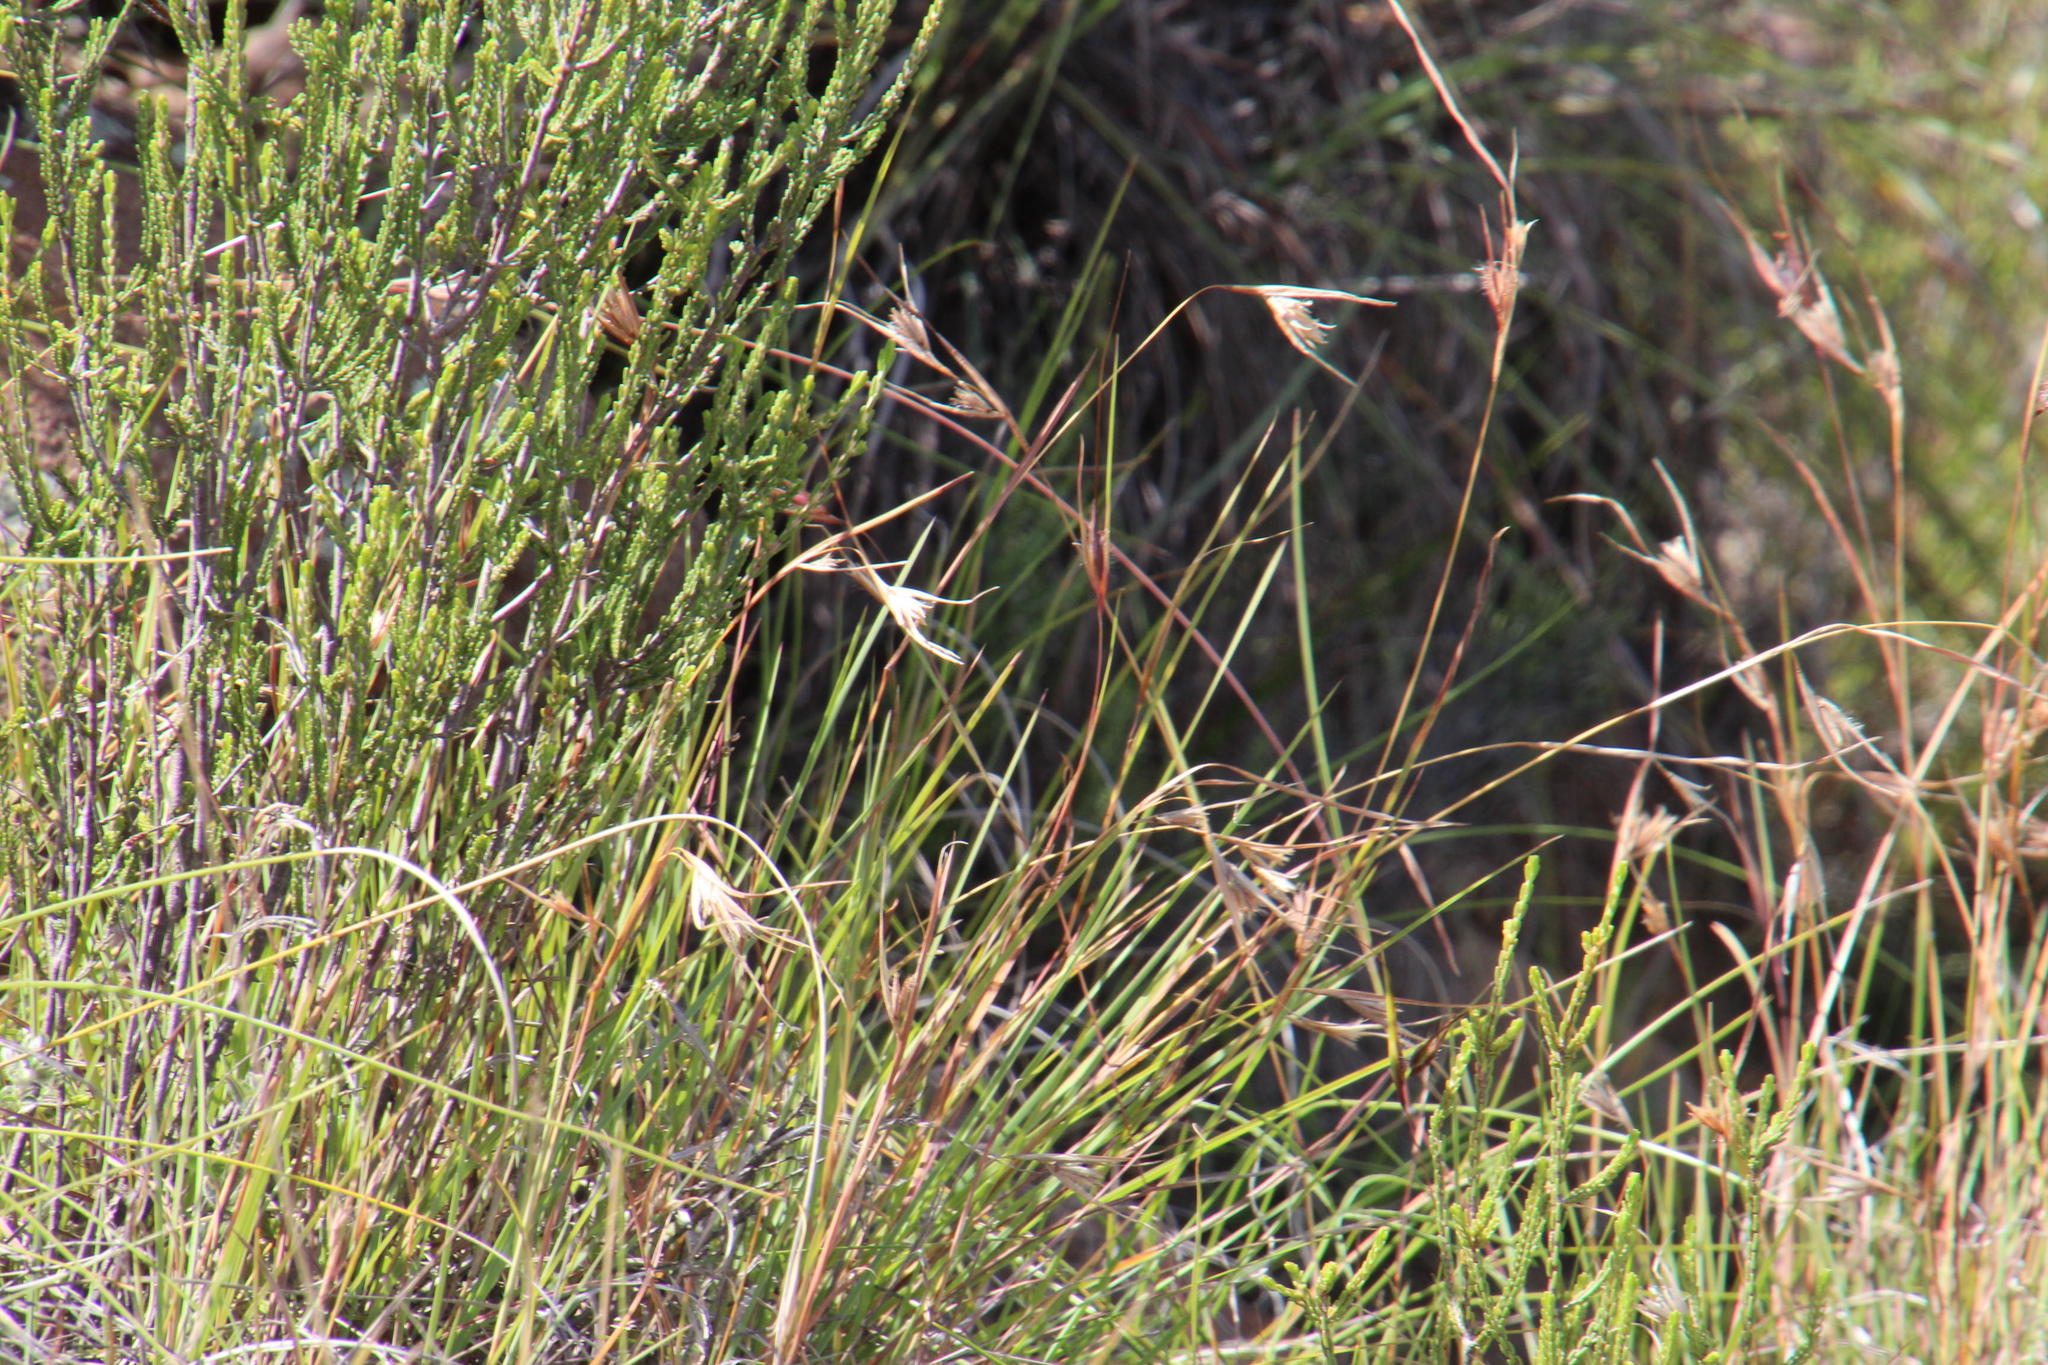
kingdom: Plantae
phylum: Tracheophyta
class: Liliopsida
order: Poales
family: Poaceae
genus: Themeda
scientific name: Themeda triandra
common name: Kangaroo grass
